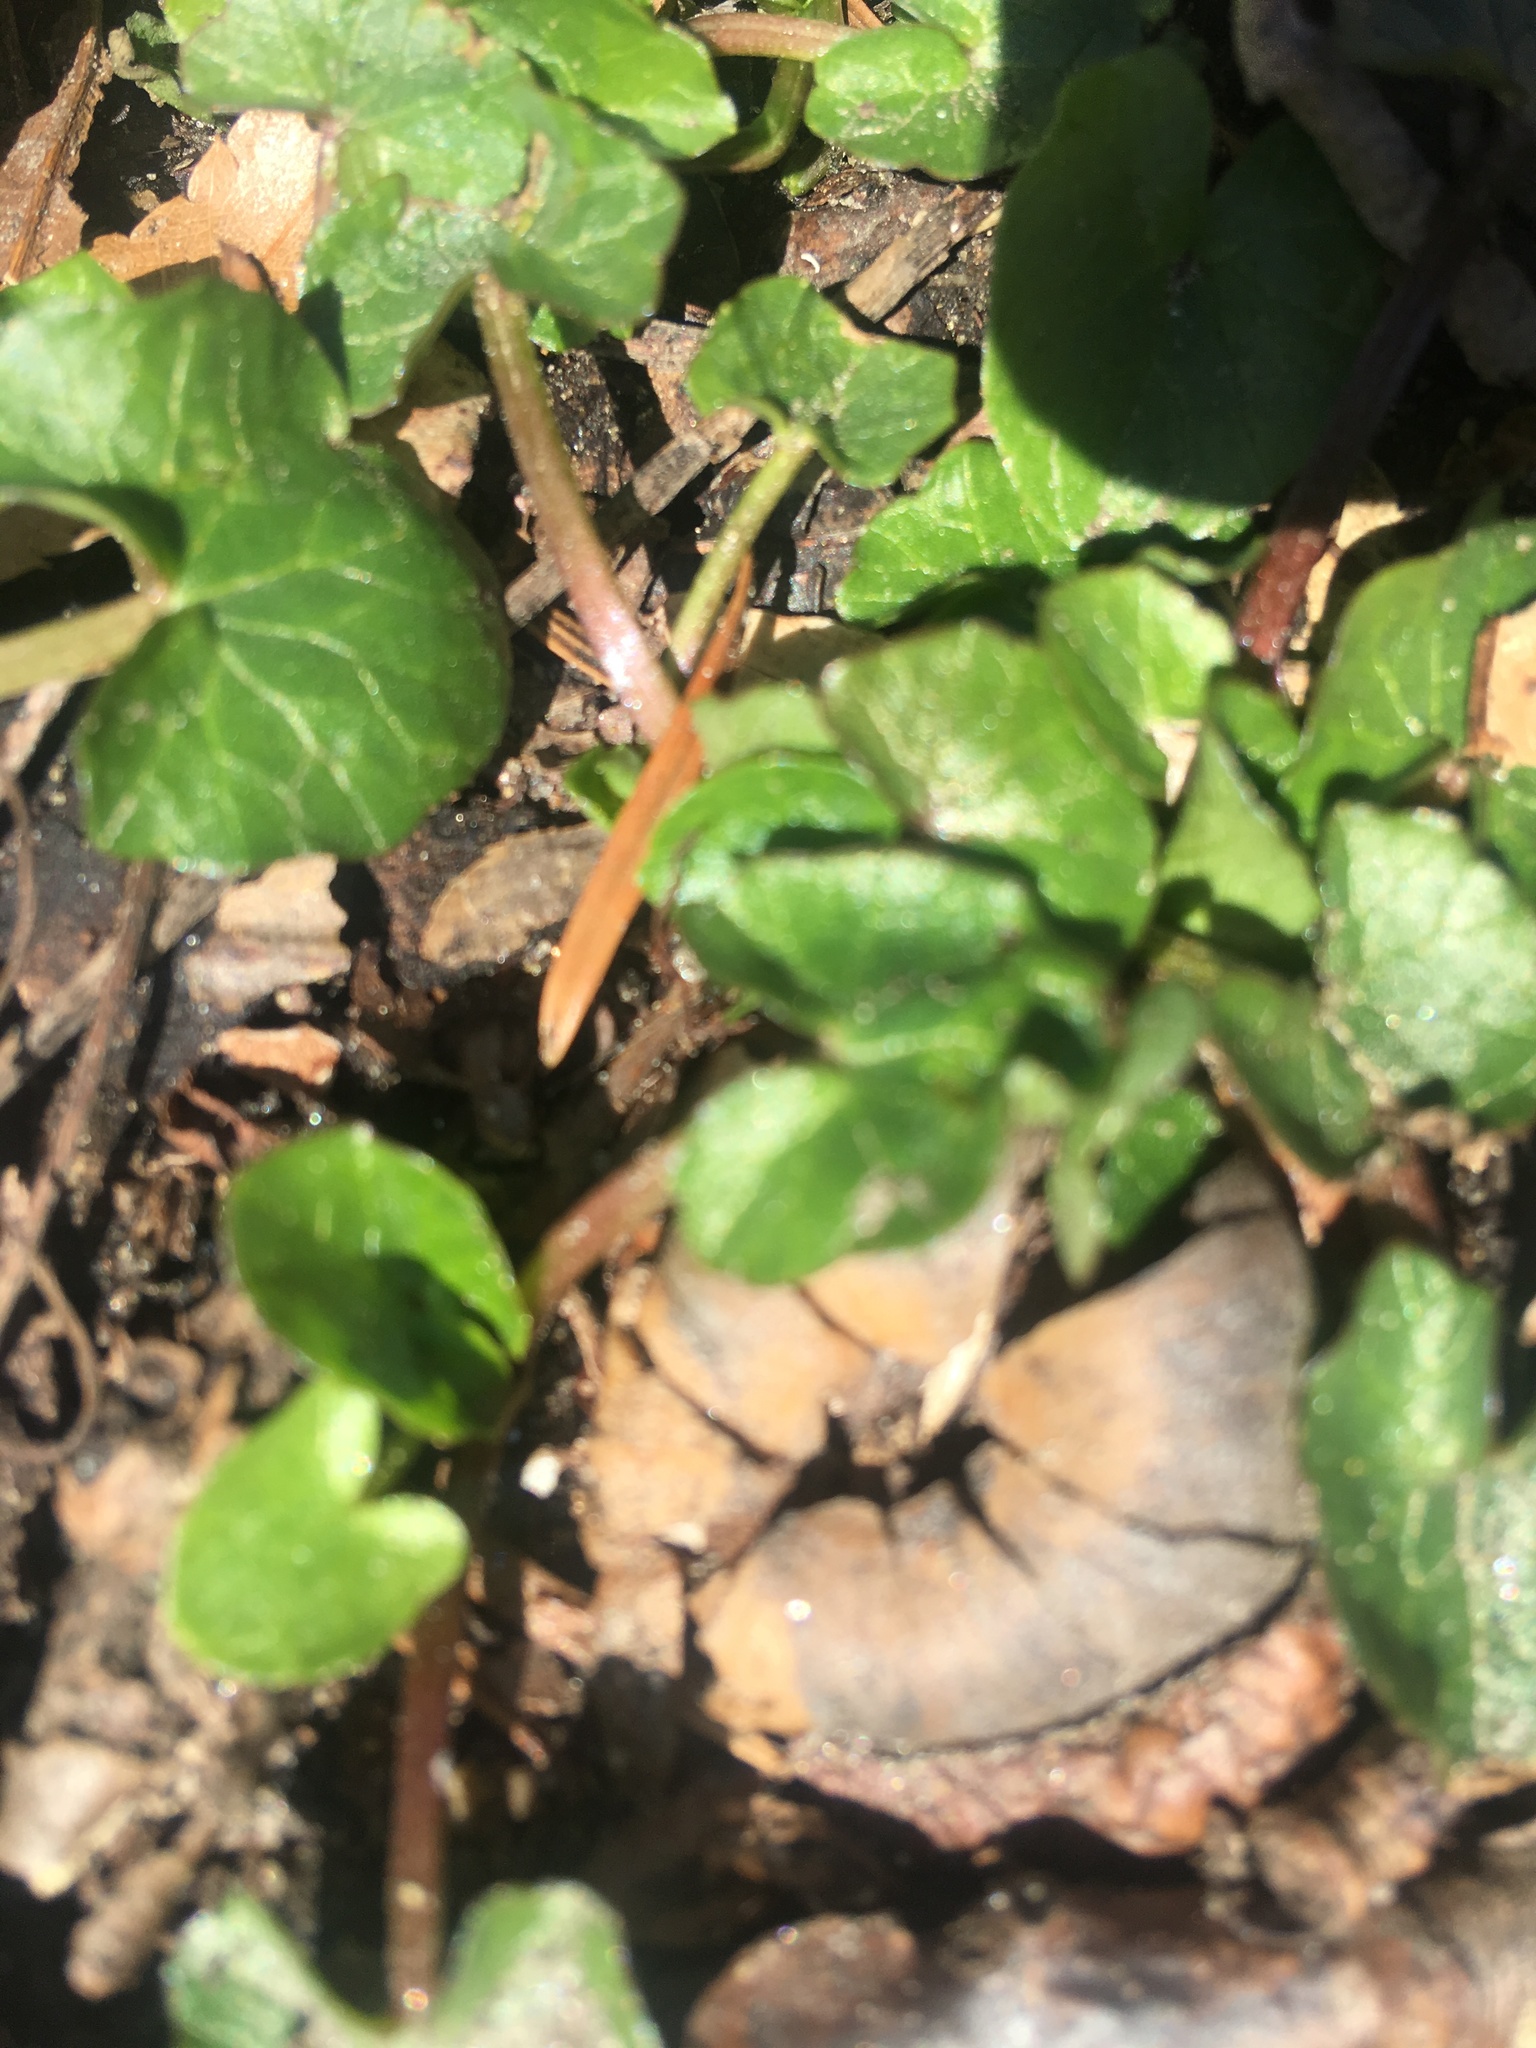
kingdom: Plantae
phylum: Tracheophyta
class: Magnoliopsida
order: Ranunculales
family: Ranunculaceae
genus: Ficaria
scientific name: Ficaria verna
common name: Lesser celandine
